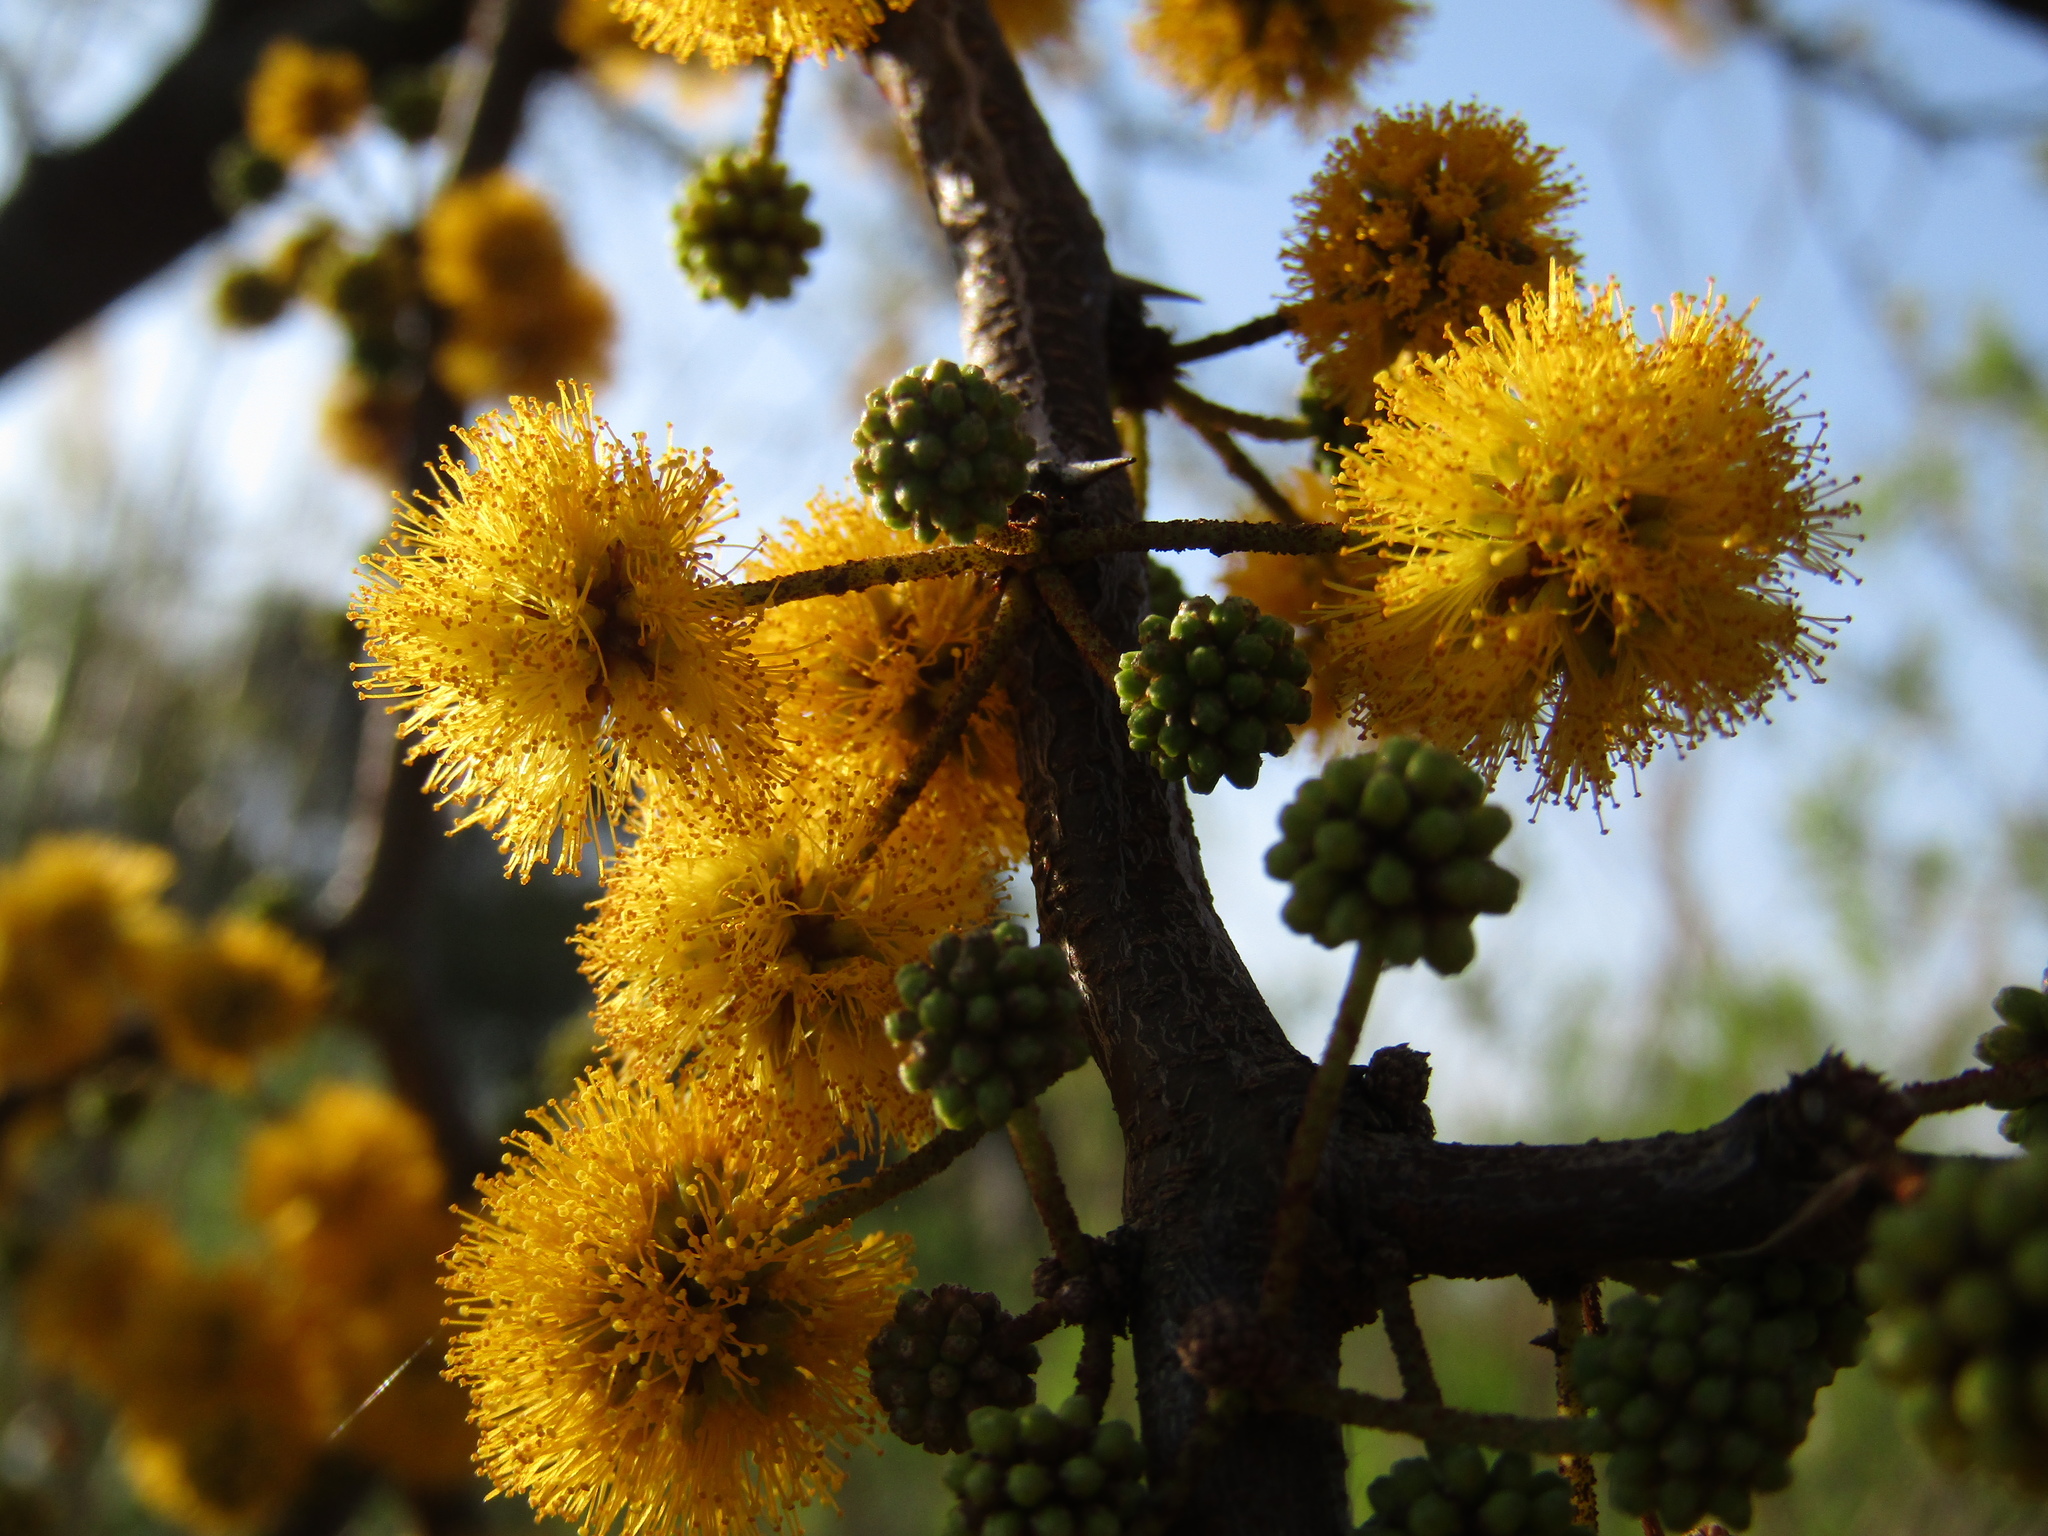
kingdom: Plantae
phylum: Tracheophyta
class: Magnoliopsida
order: Fabales
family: Fabaceae
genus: Vachellia
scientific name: Vachellia caven
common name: Roman cassie
